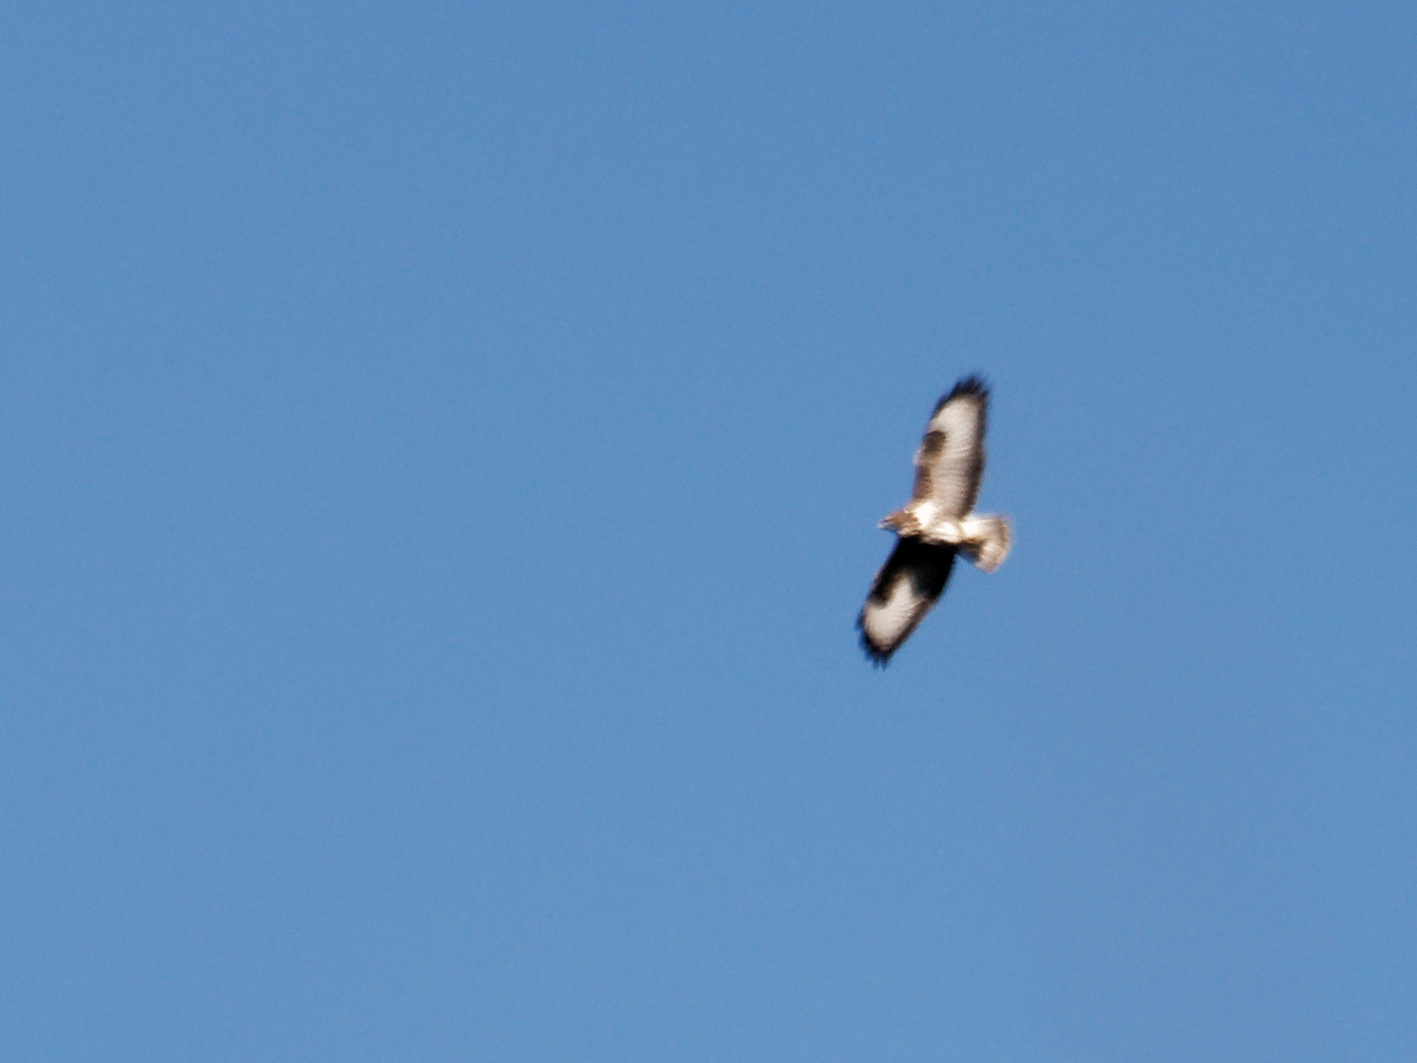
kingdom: Animalia
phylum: Chordata
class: Aves
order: Accipitriformes
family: Accipitridae
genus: Buteo
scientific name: Buteo buteo
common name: Common buzzard
